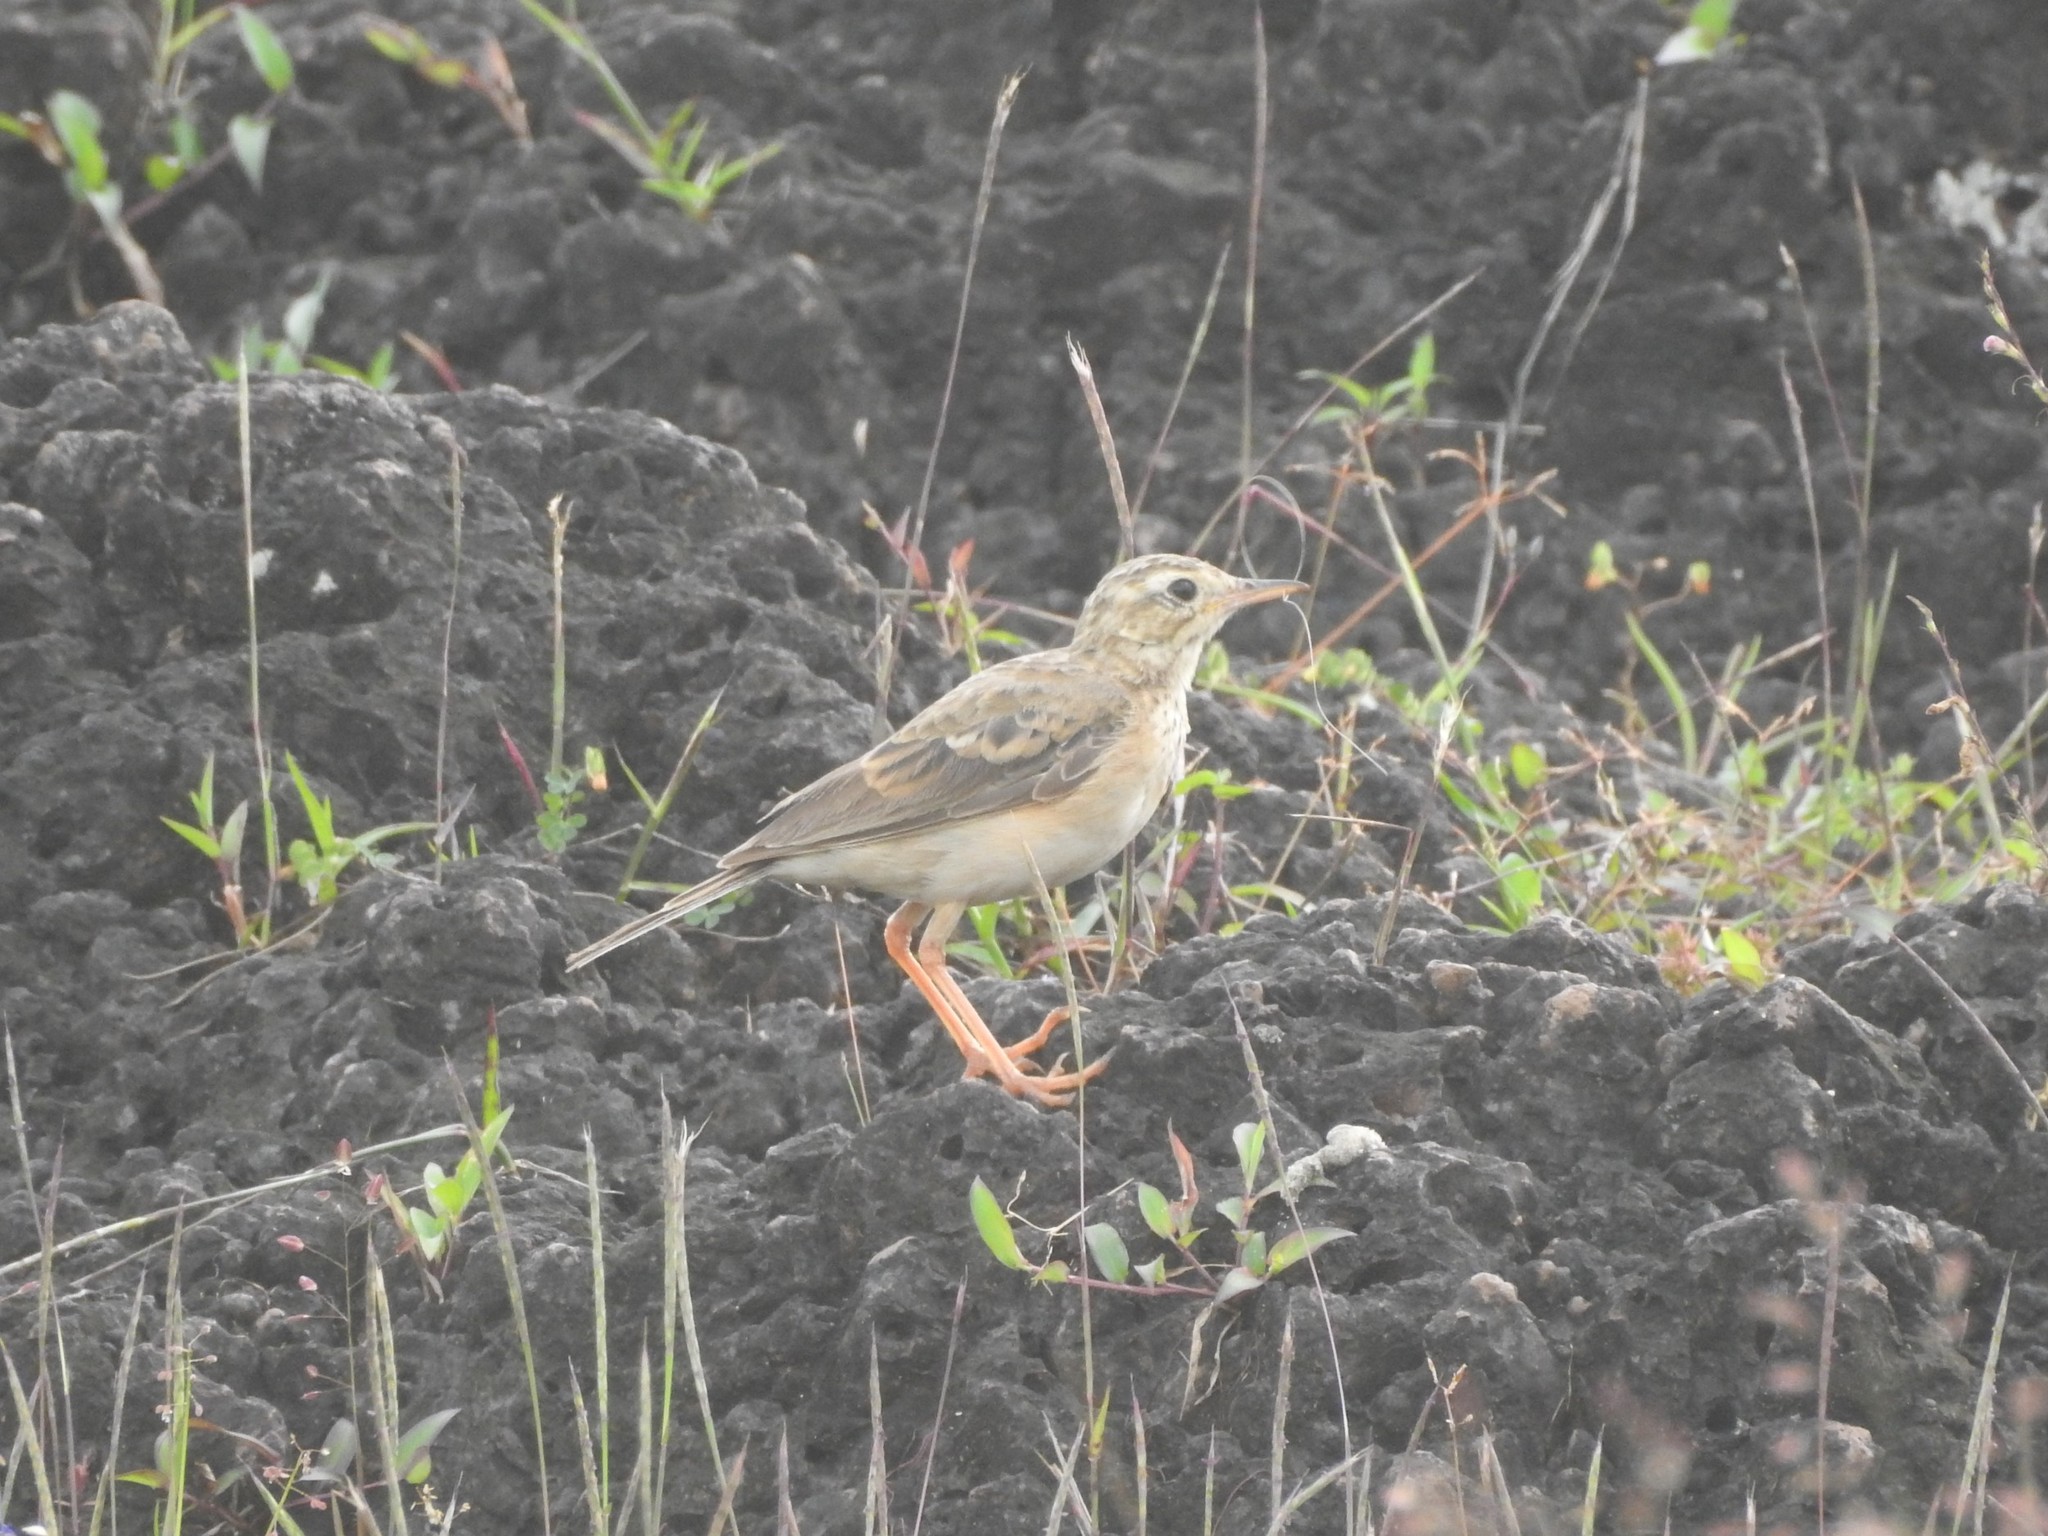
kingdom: Animalia
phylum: Chordata
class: Aves
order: Passeriformes
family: Motacillidae
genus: Anthus
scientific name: Anthus rufulus
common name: Paddyfield pipit
